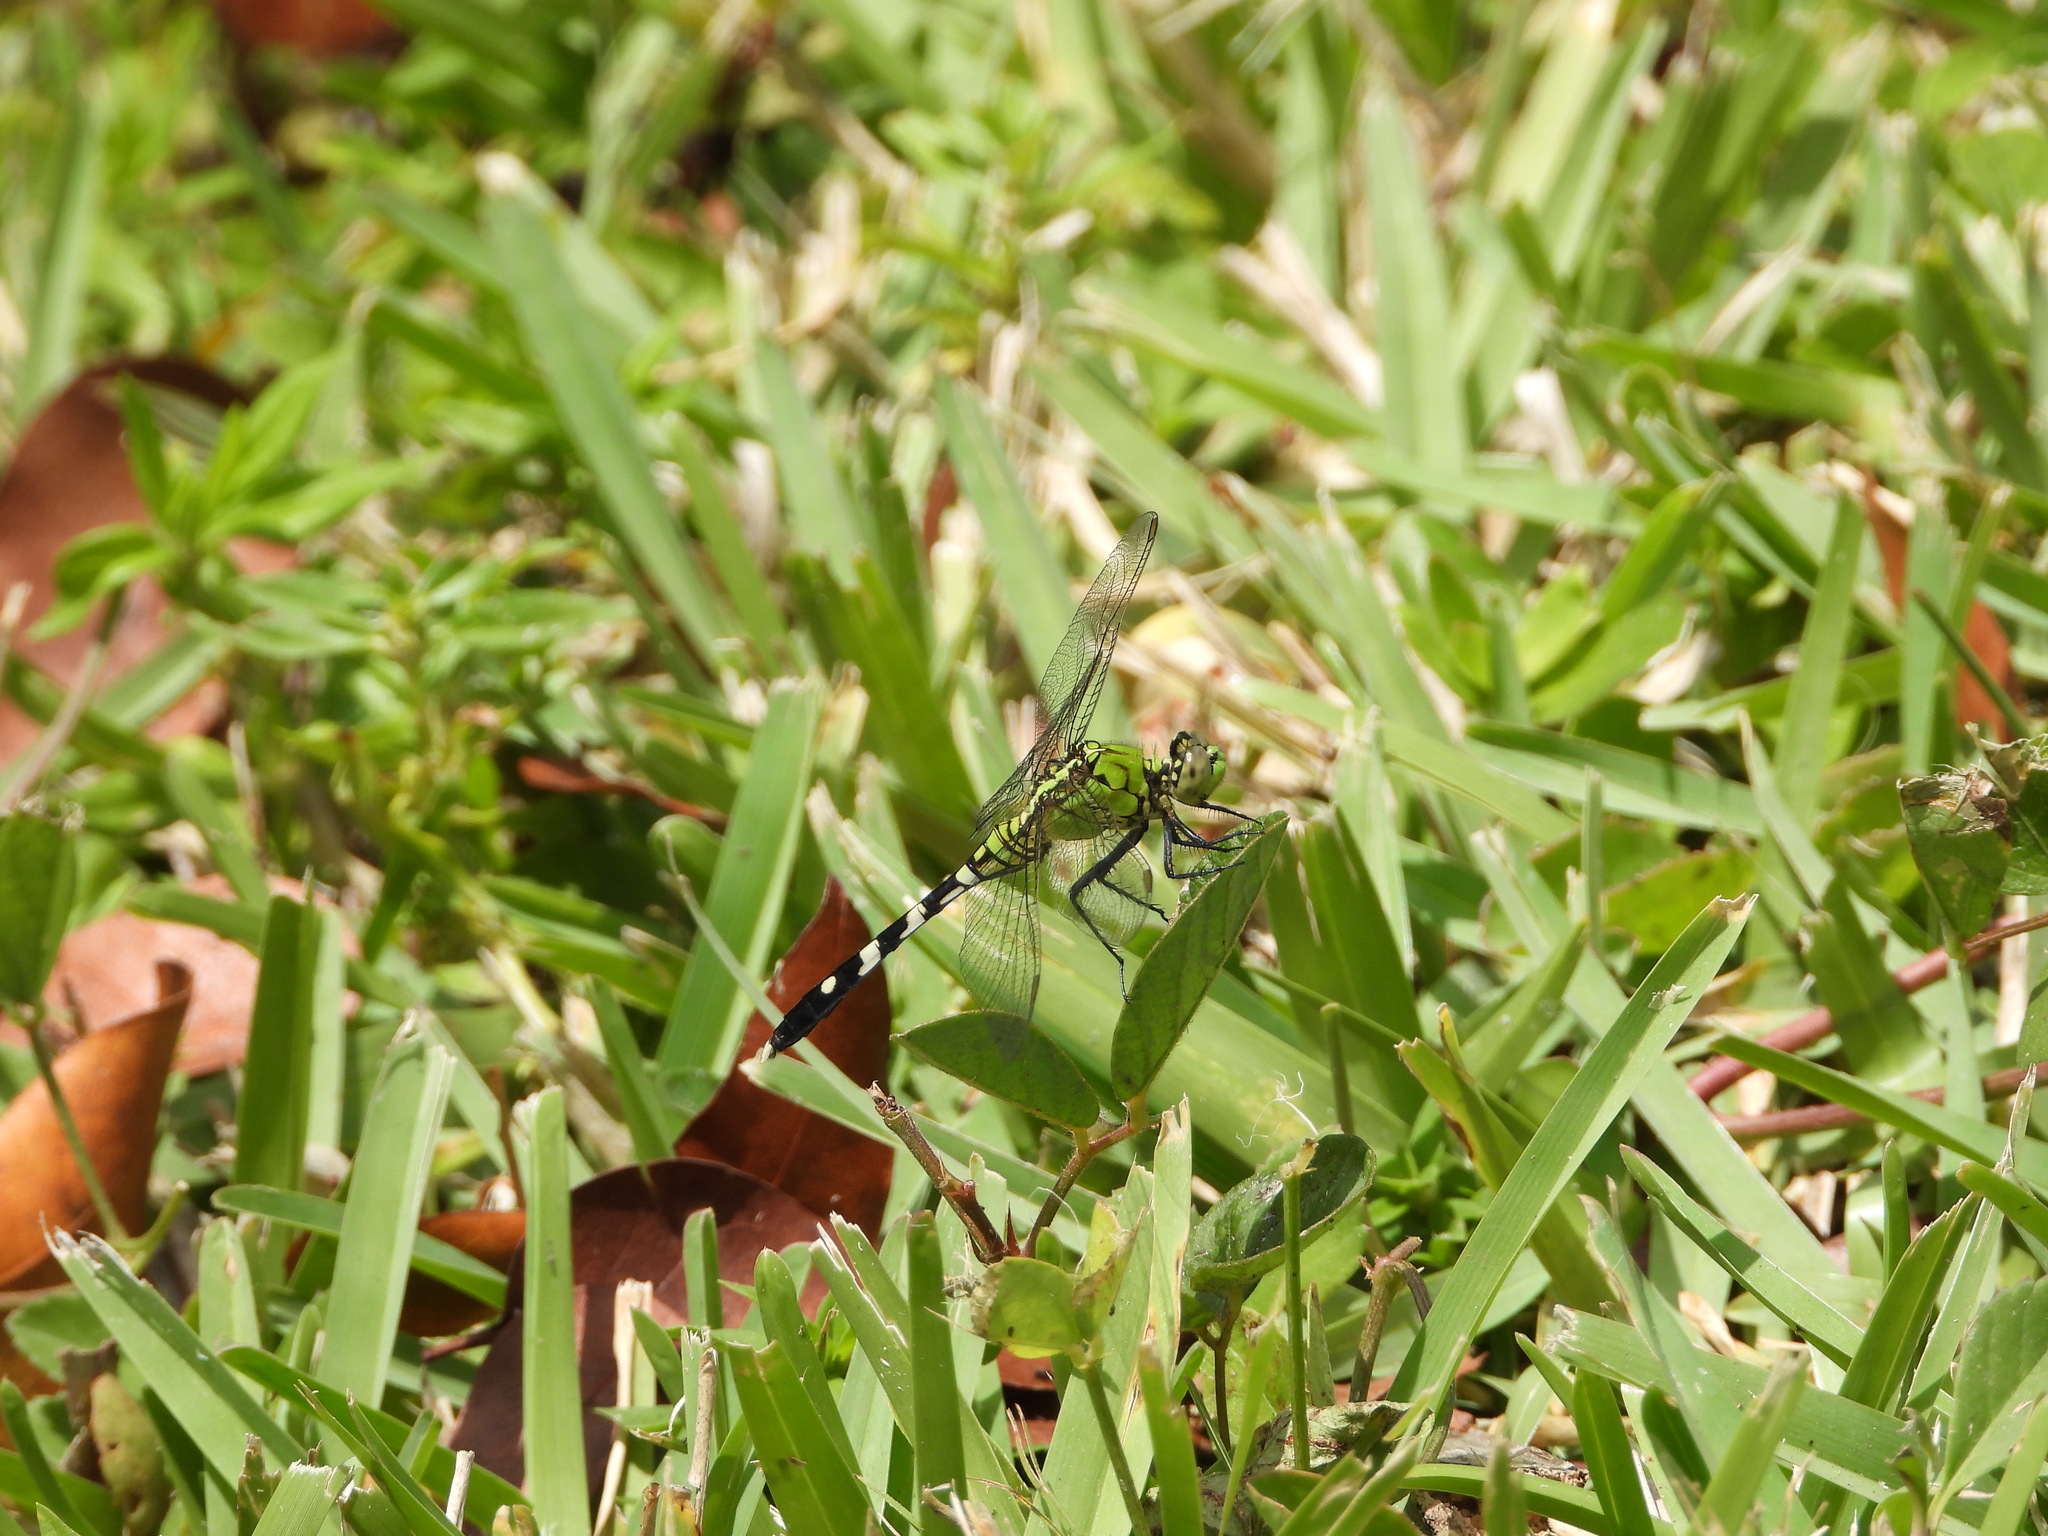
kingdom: Animalia
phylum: Arthropoda
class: Insecta
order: Odonata
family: Libellulidae
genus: Erythemis
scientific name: Erythemis simplicicollis
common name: Eastern pondhawk
